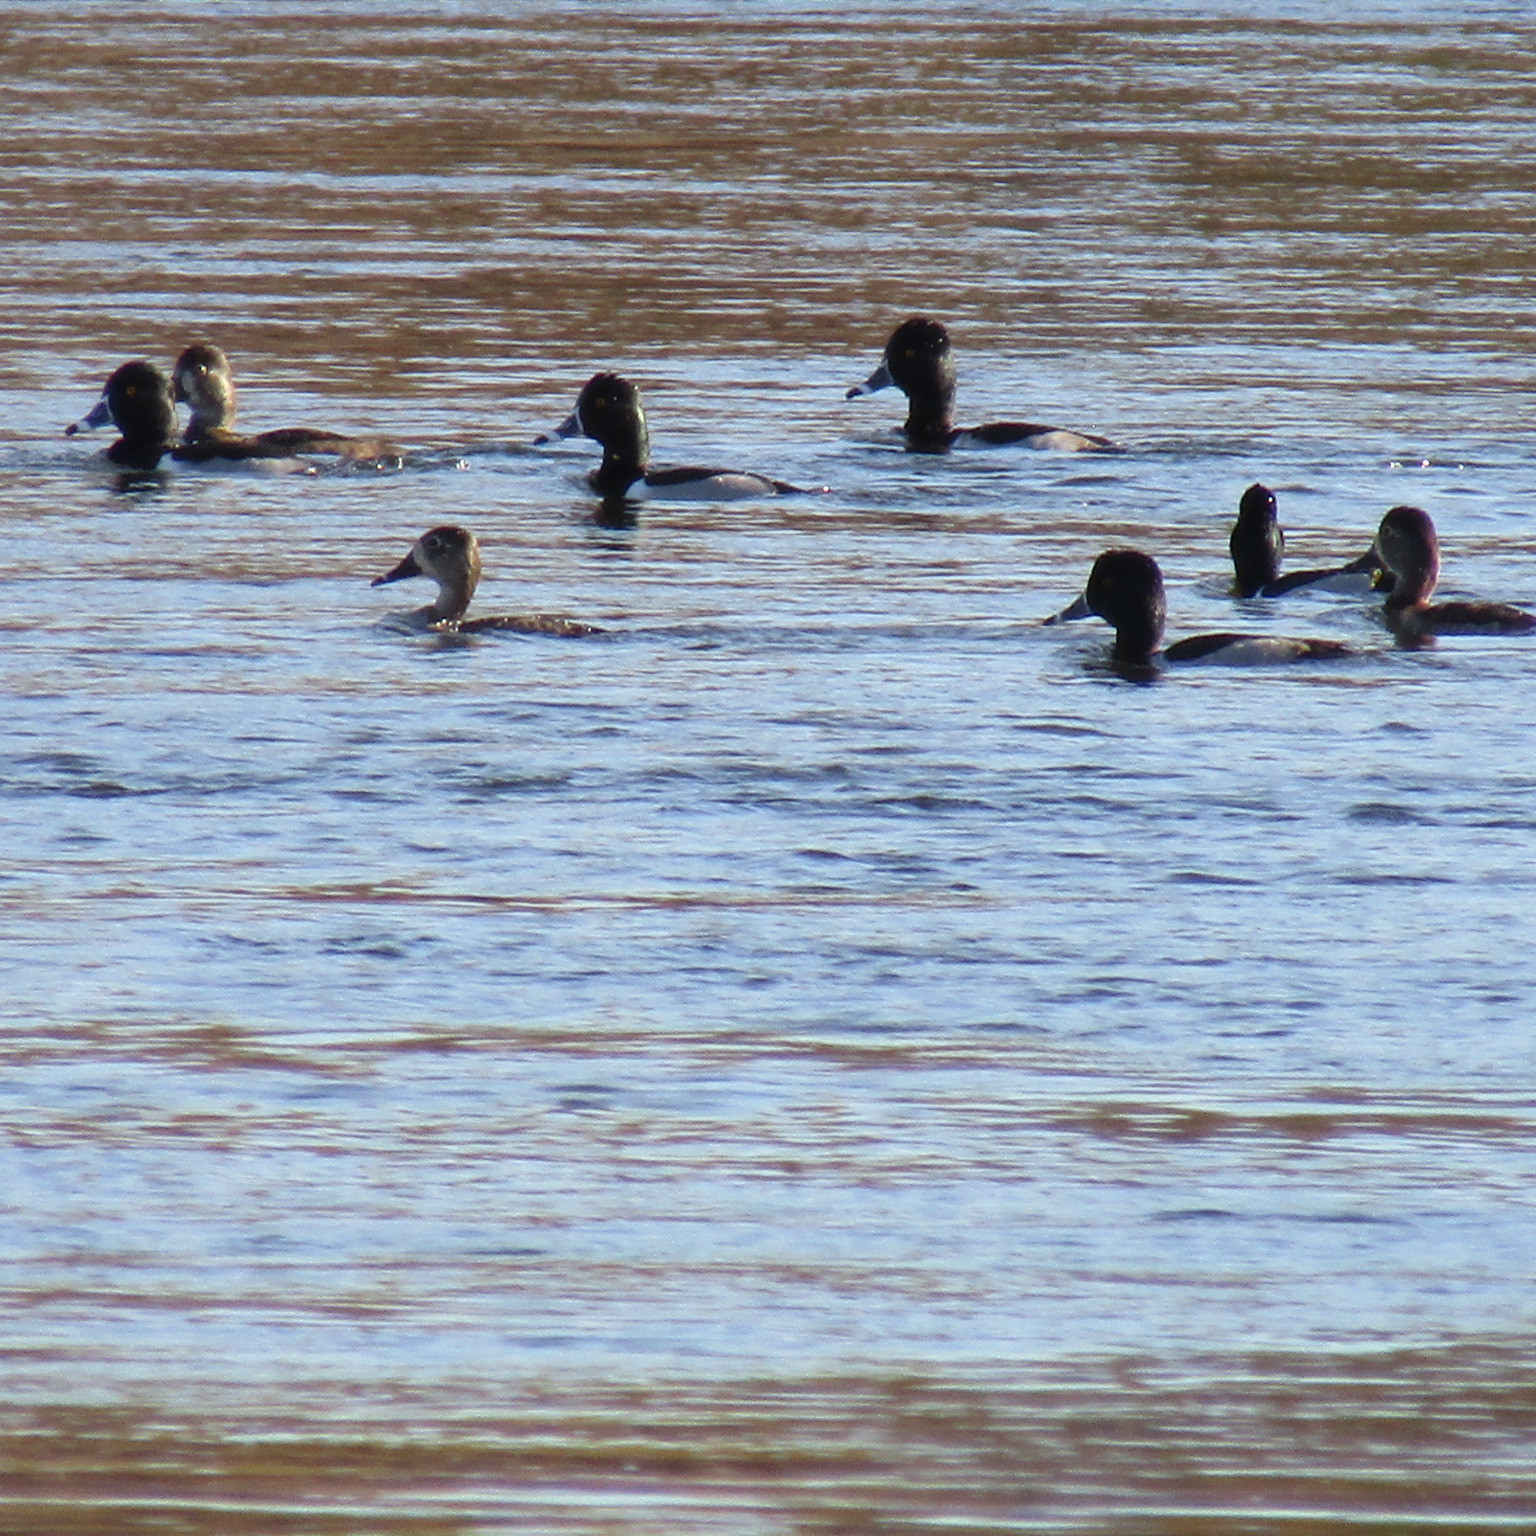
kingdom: Animalia
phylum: Chordata
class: Aves
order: Anseriformes
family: Anatidae
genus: Aythya
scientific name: Aythya collaris
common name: Ring-necked duck
